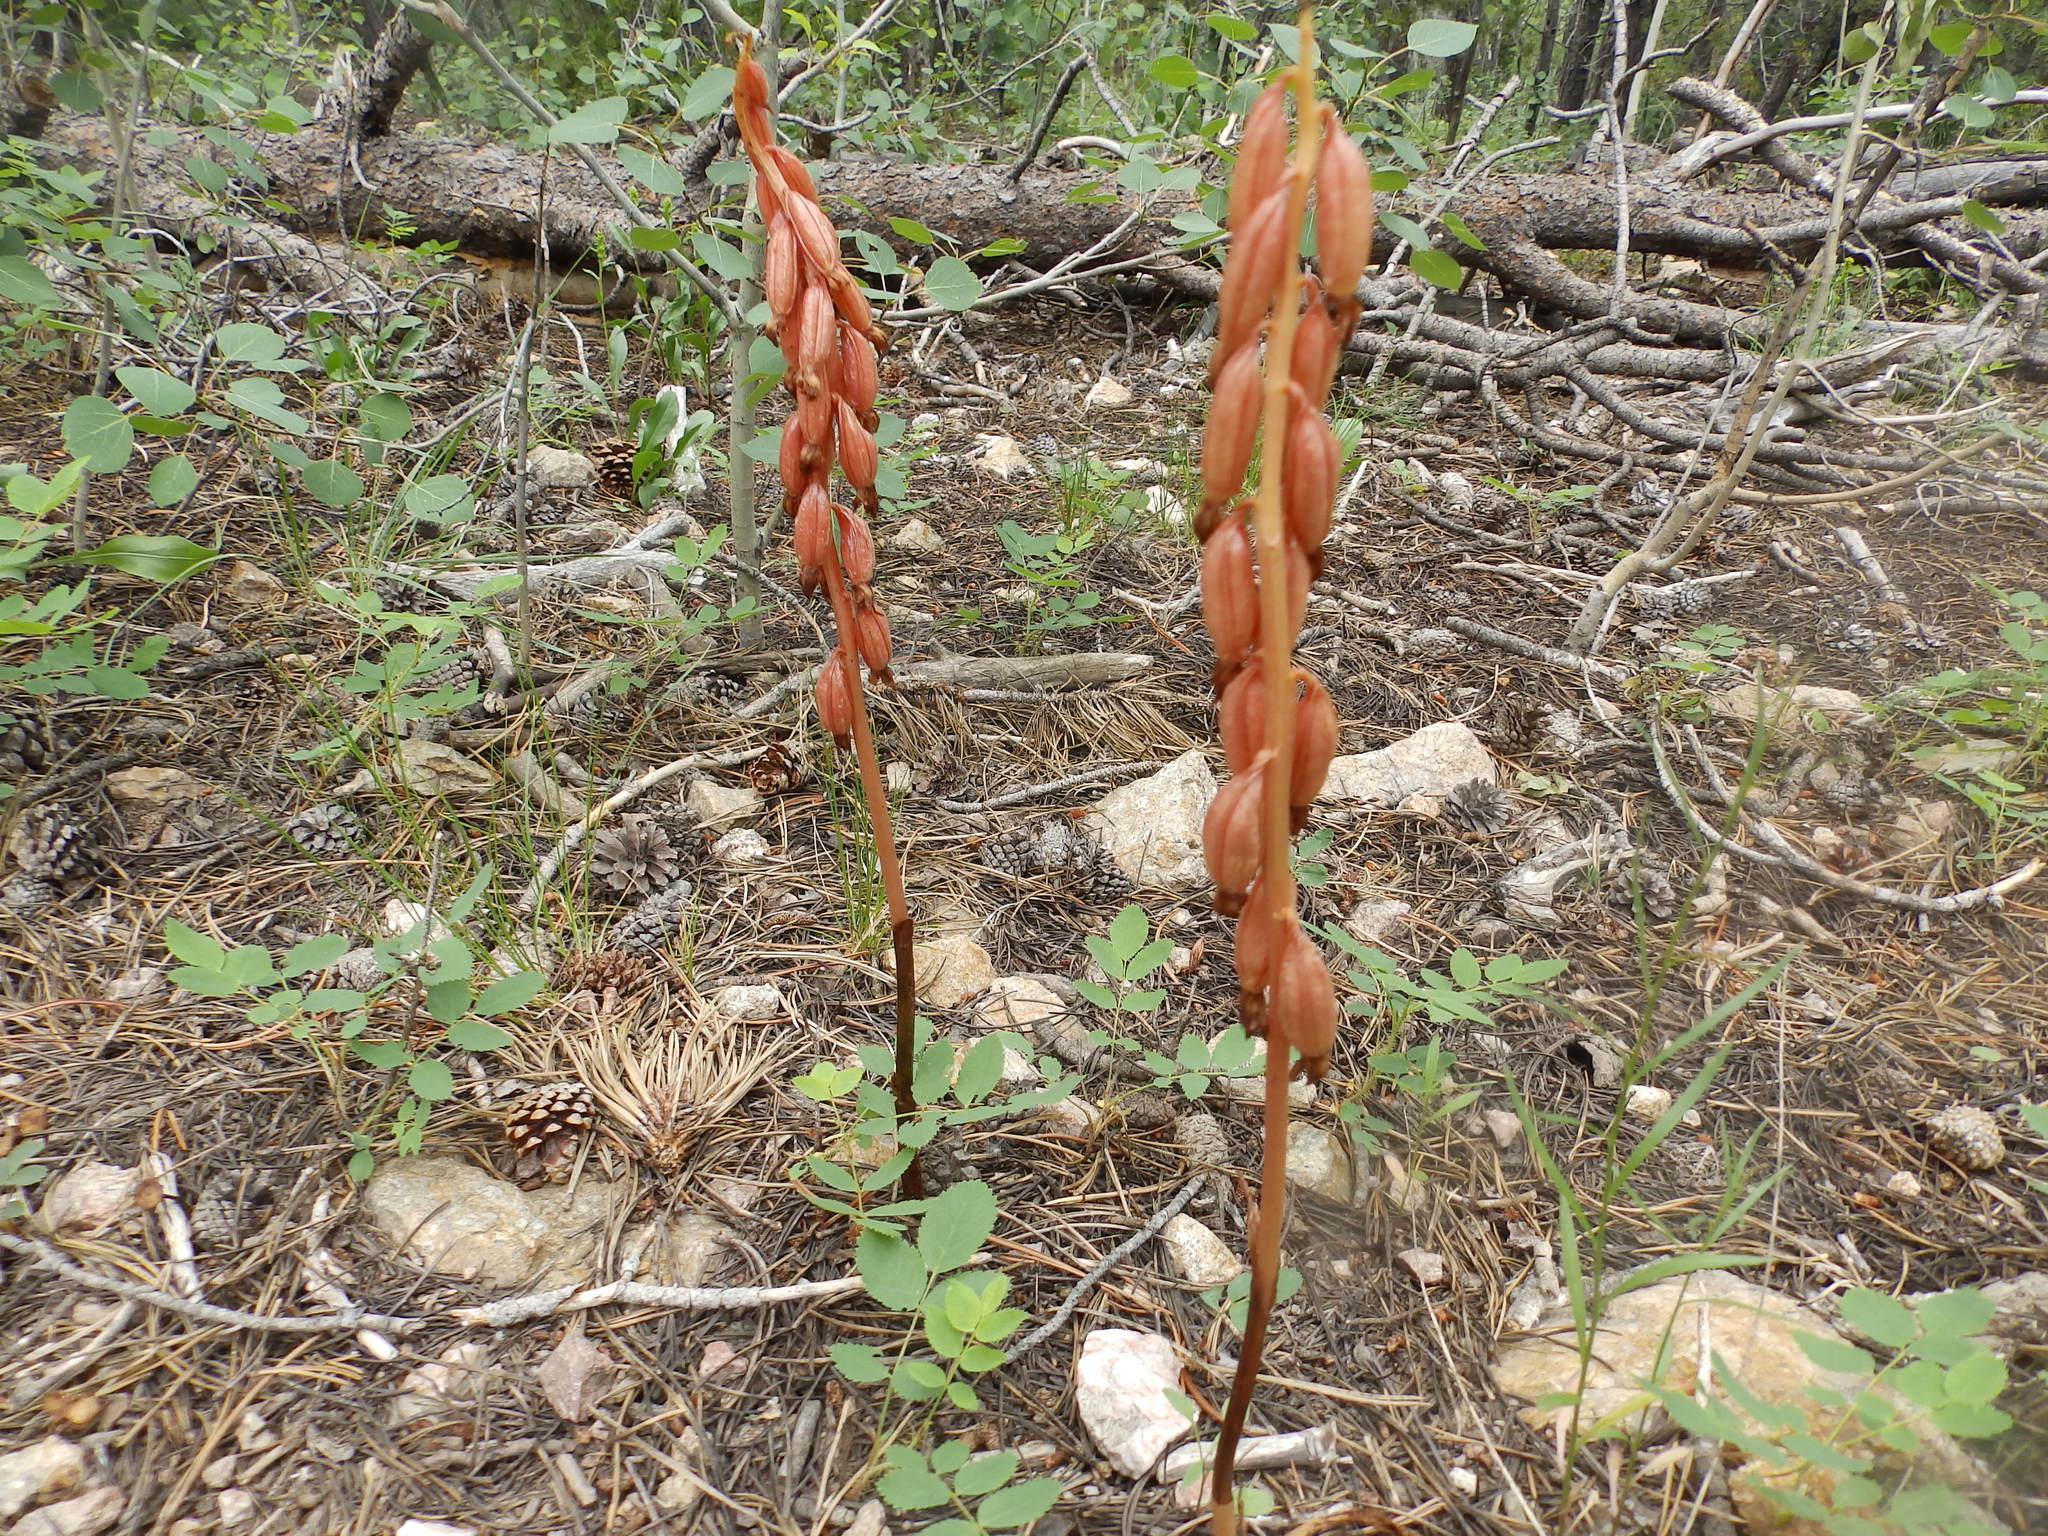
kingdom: Plantae
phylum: Tracheophyta
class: Liliopsida
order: Asparagales
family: Orchidaceae
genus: Corallorhiza
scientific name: Corallorhiza maculata
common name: Spotted coralroot
